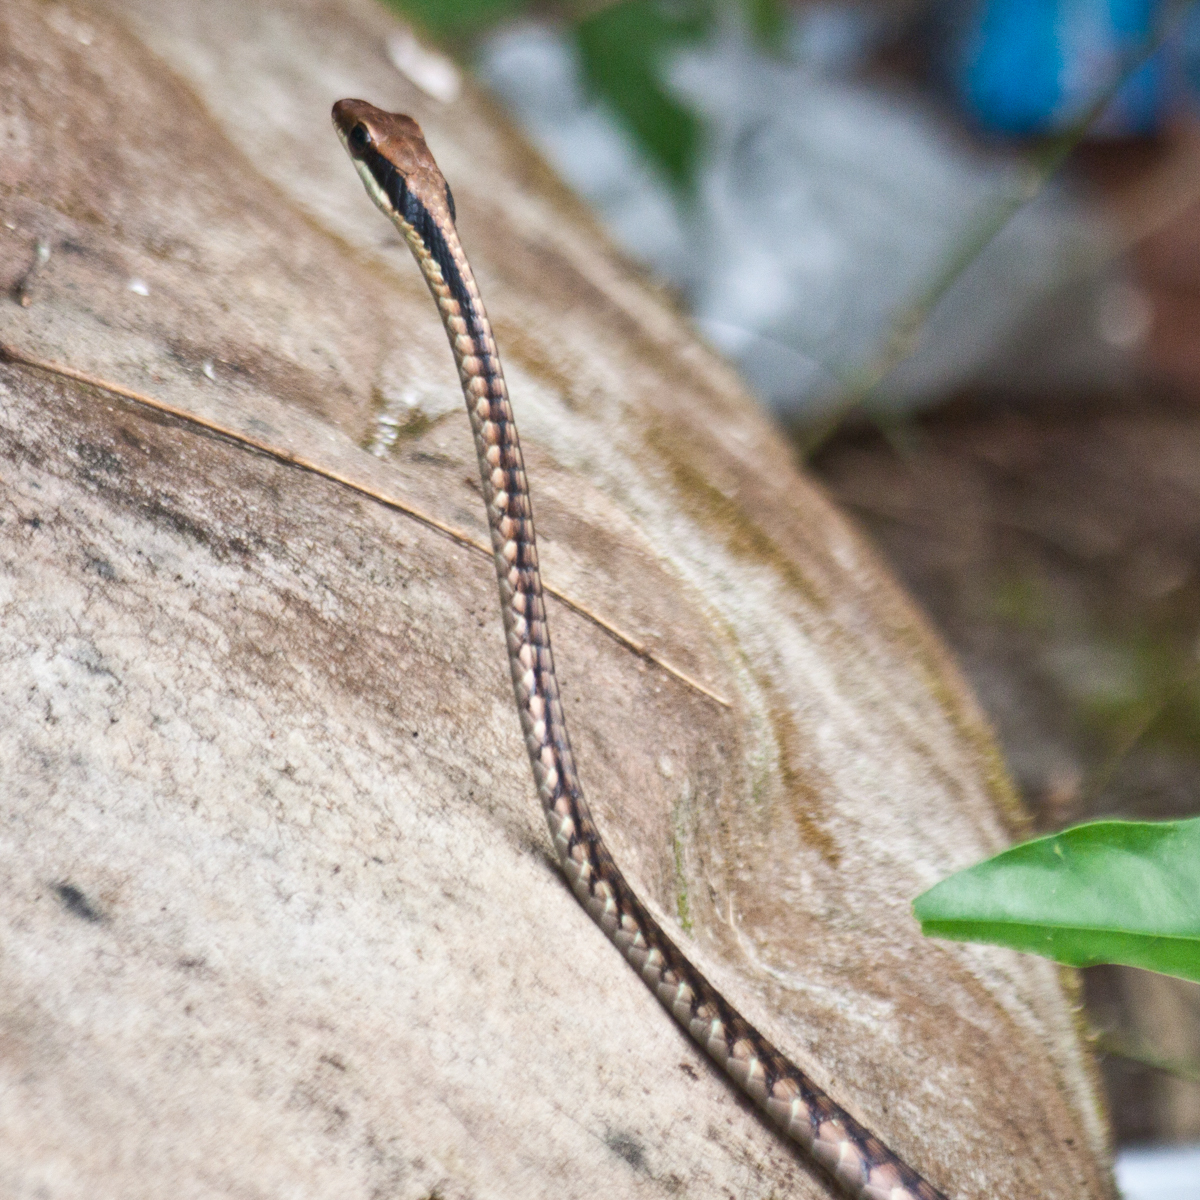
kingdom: Animalia
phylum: Chordata
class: Squamata
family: Colubridae
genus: Dendrelaphis
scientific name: Dendrelaphis ngansonensis
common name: Nganson bronzeback tree snake
